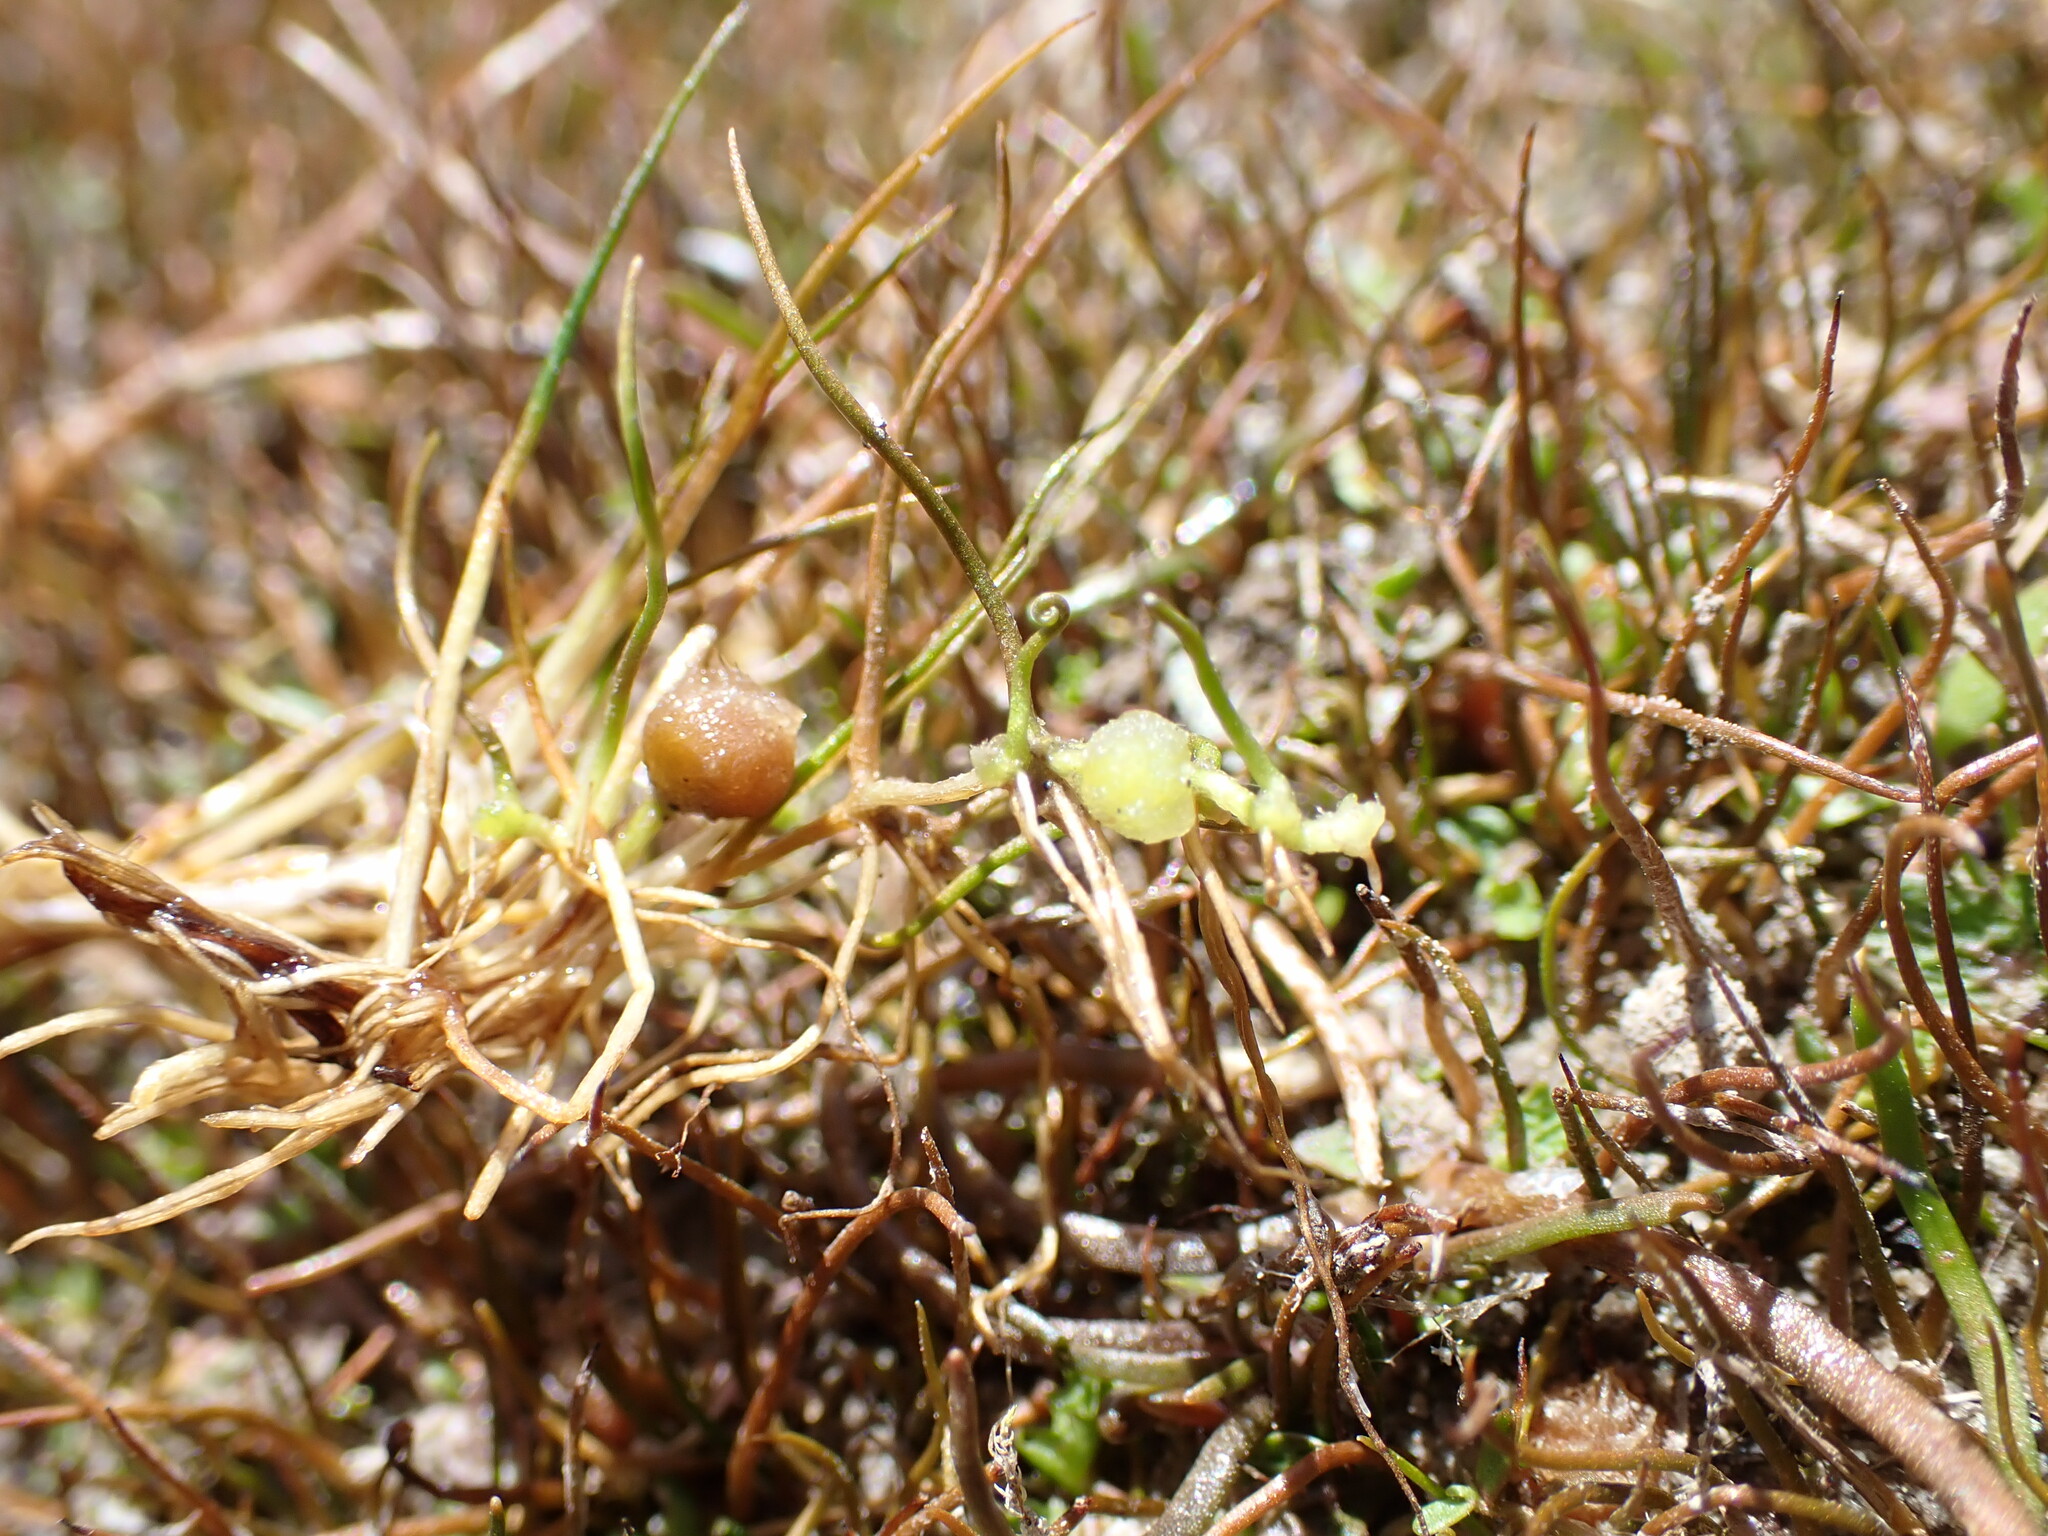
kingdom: Plantae
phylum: Tracheophyta
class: Polypodiopsida
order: Salviniales
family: Marsileaceae
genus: Pilularia
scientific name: Pilularia novae-hollandiae
